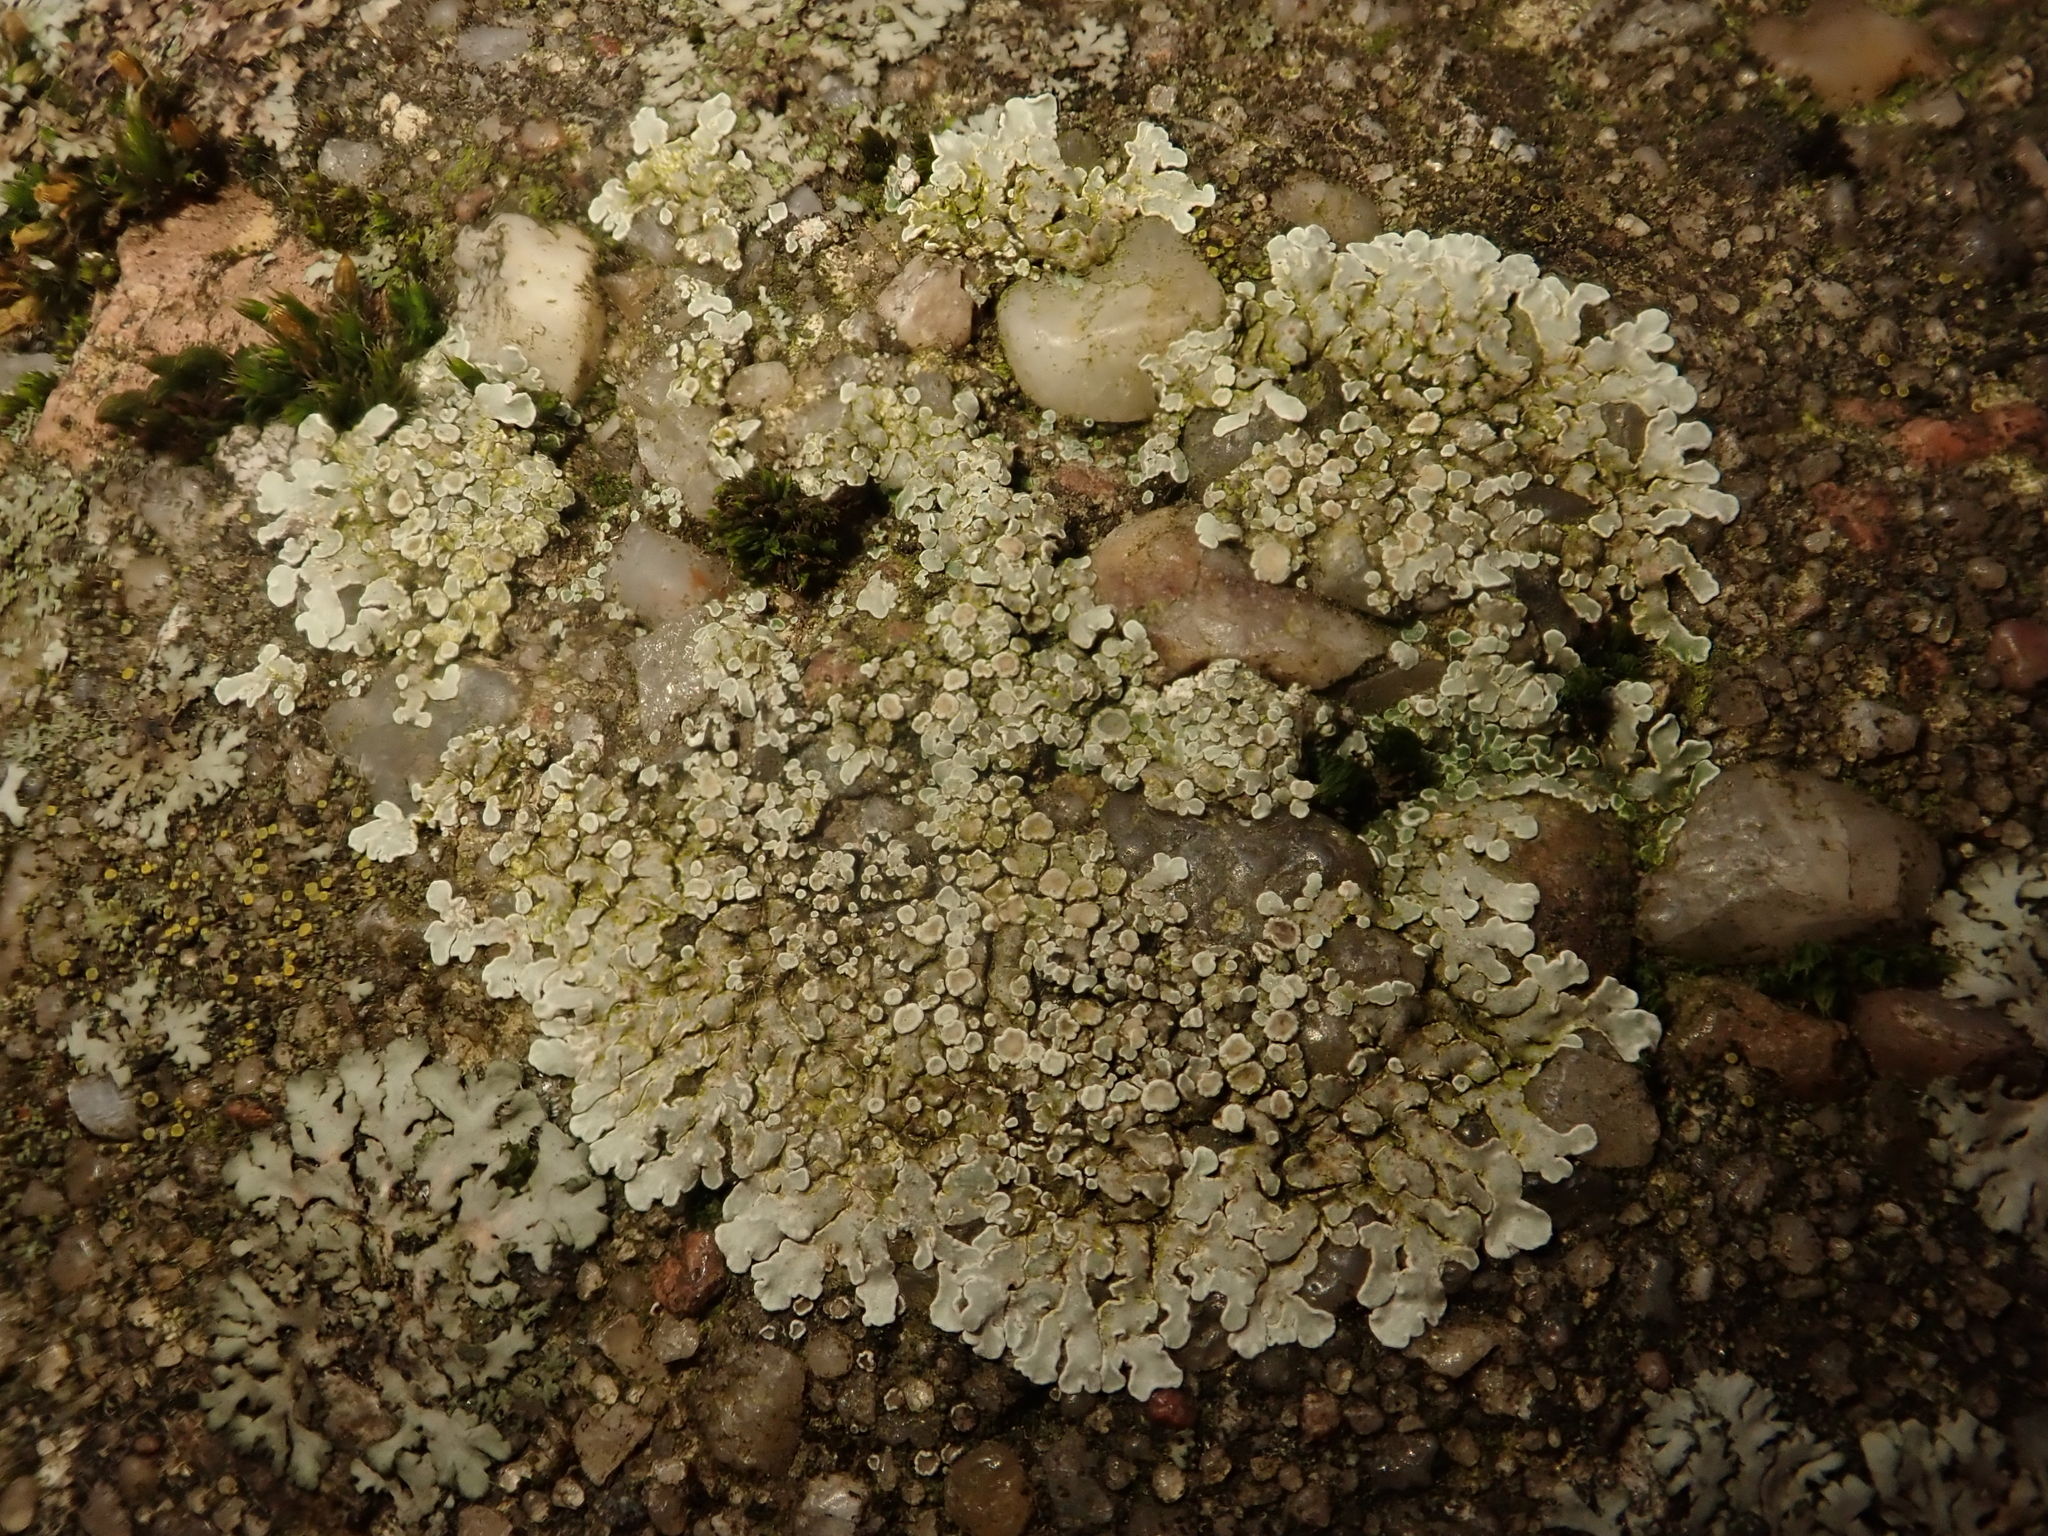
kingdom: Fungi
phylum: Ascomycota
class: Lecanoromycetes
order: Lecanorales
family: Lecanoraceae
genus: Protoparmeliopsis
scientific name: Protoparmeliopsis muralis
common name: Stonewall rim lichen
